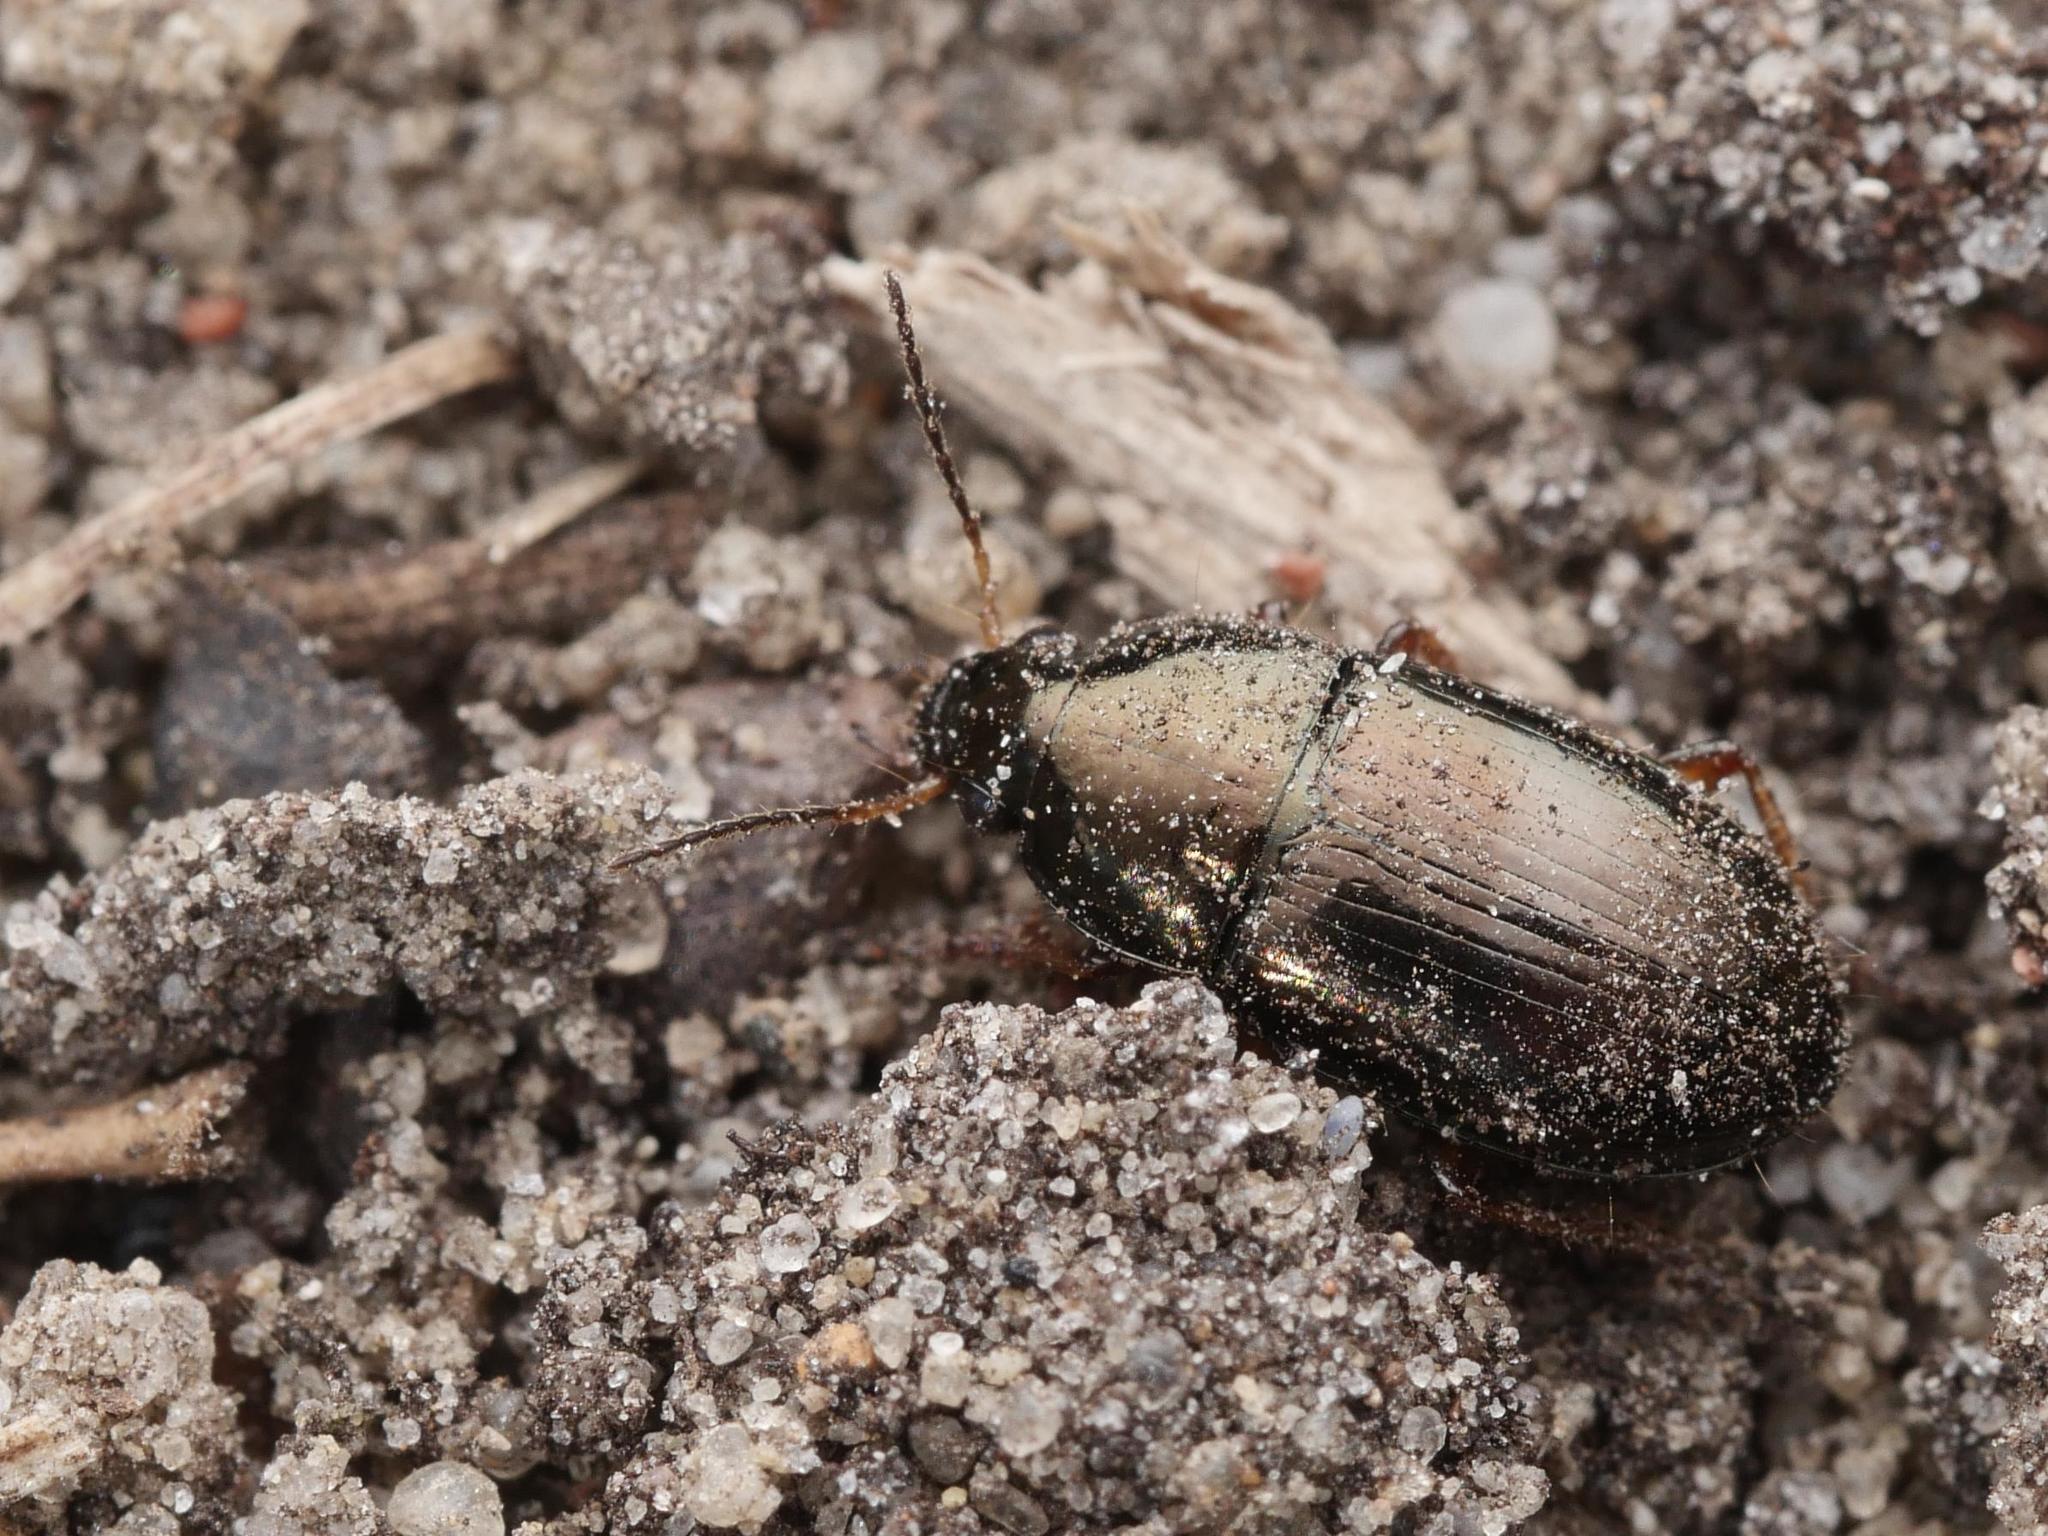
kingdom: Animalia
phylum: Arthropoda
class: Insecta
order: Coleoptera
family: Carabidae
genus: Amara
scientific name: Amara anthobia
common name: Italy harp ground beetle
